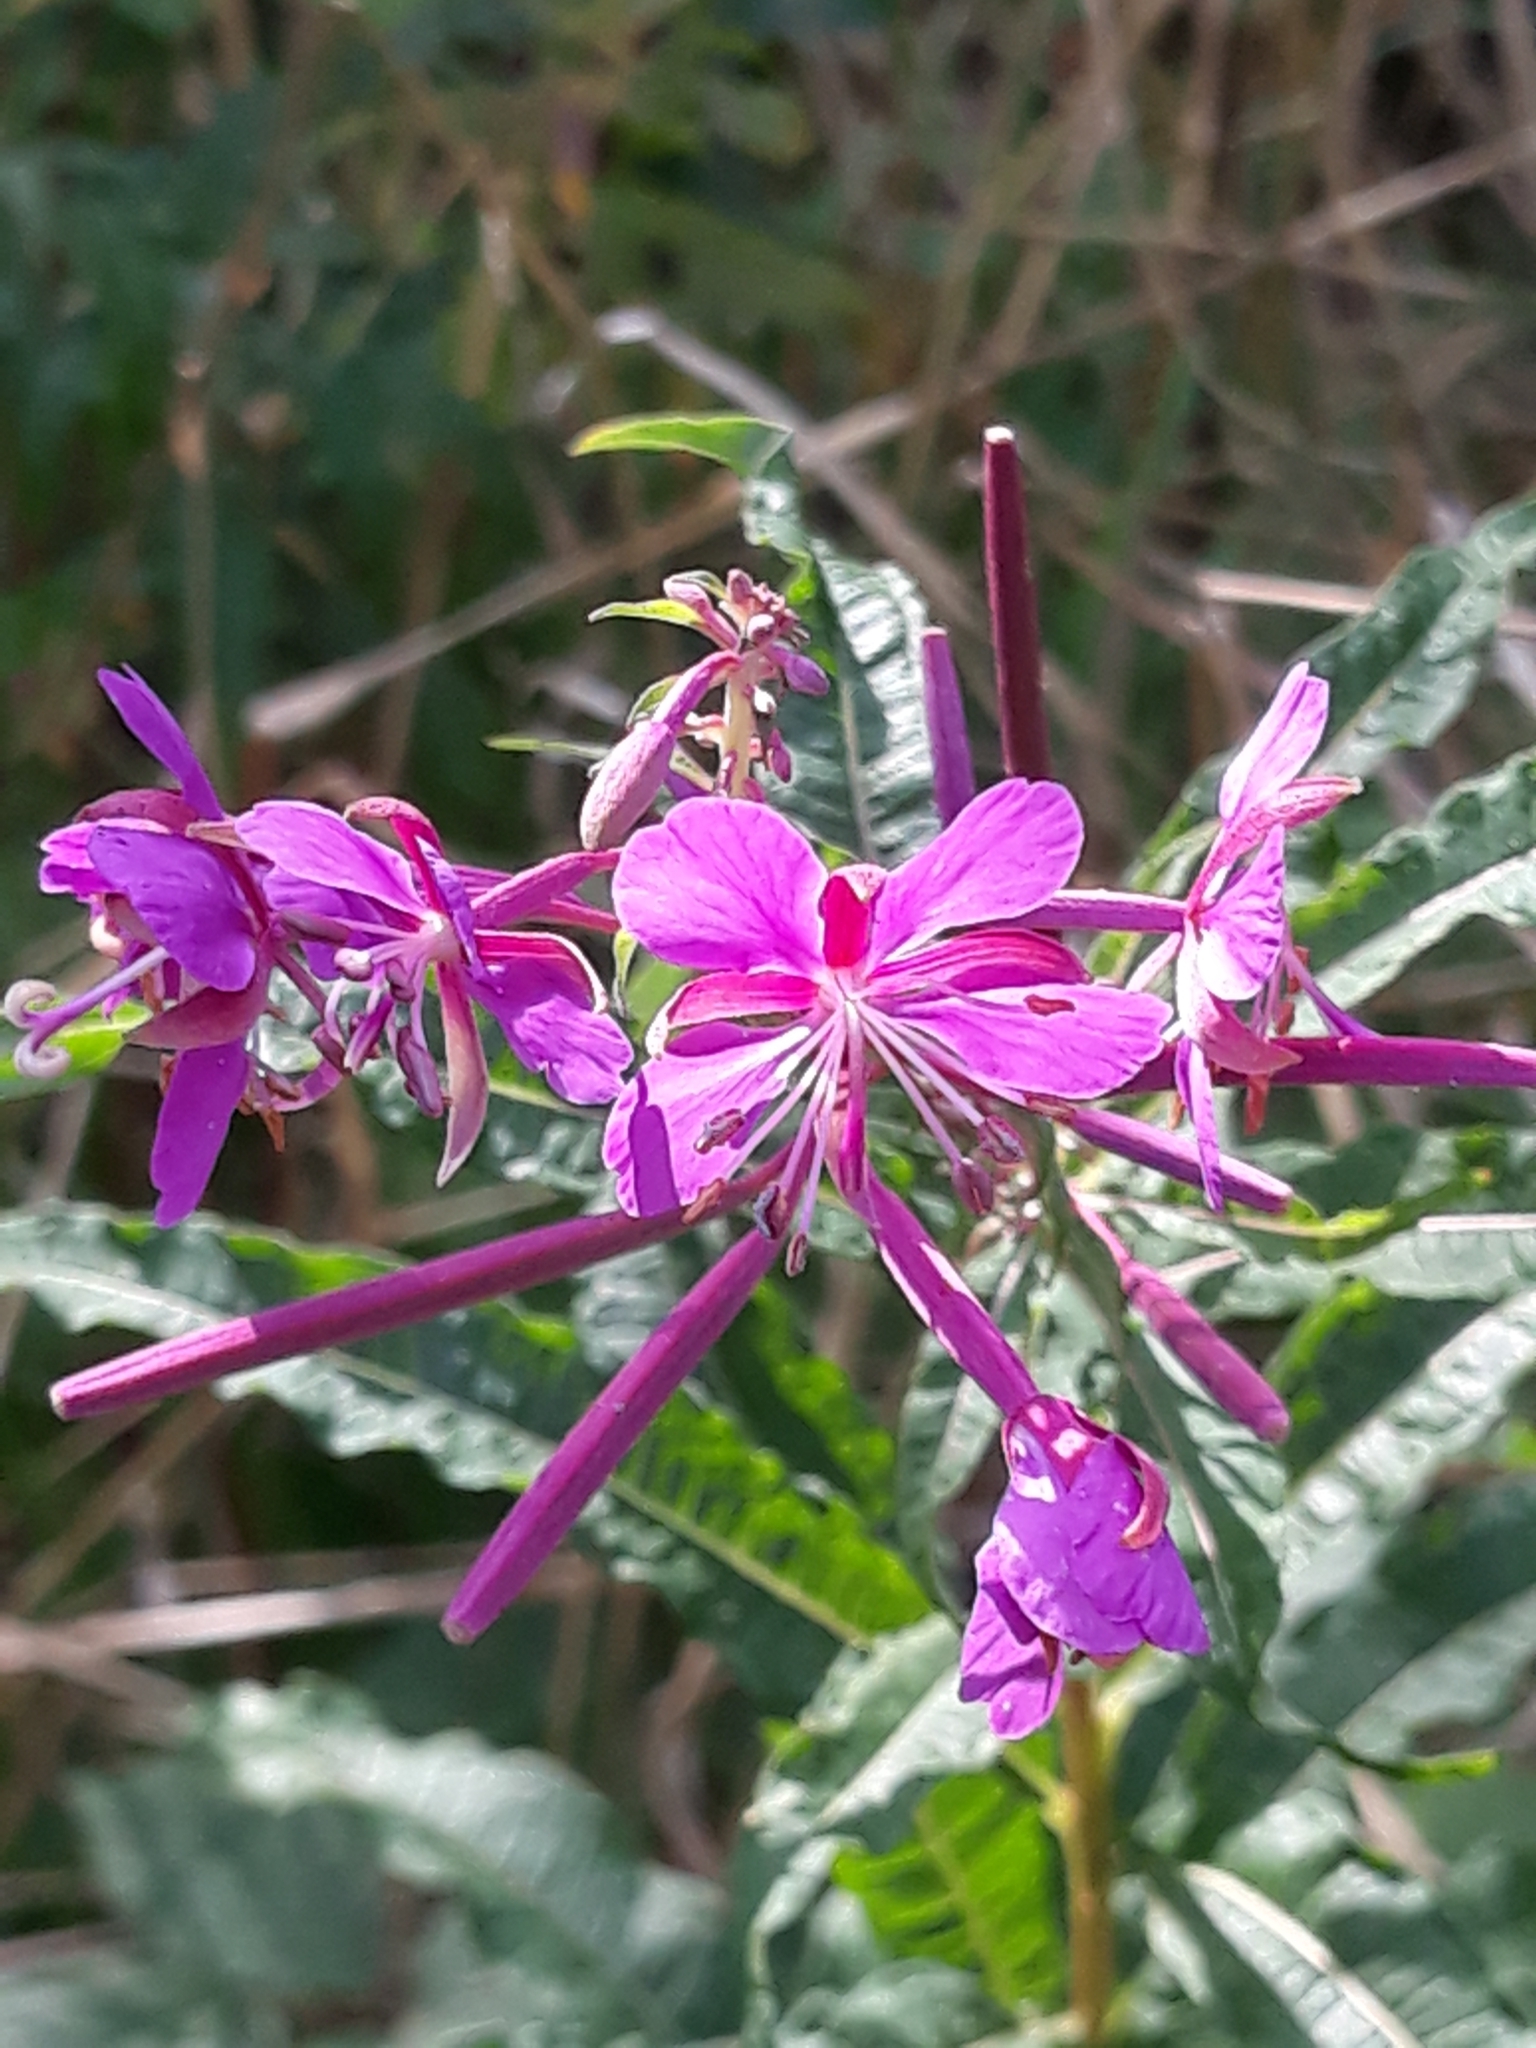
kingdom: Plantae
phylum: Tracheophyta
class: Magnoliopsida
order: Myrtales
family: Onagraceae
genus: Chamaenerion
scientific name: Chamaenerion angustifolium
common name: Fireweed
